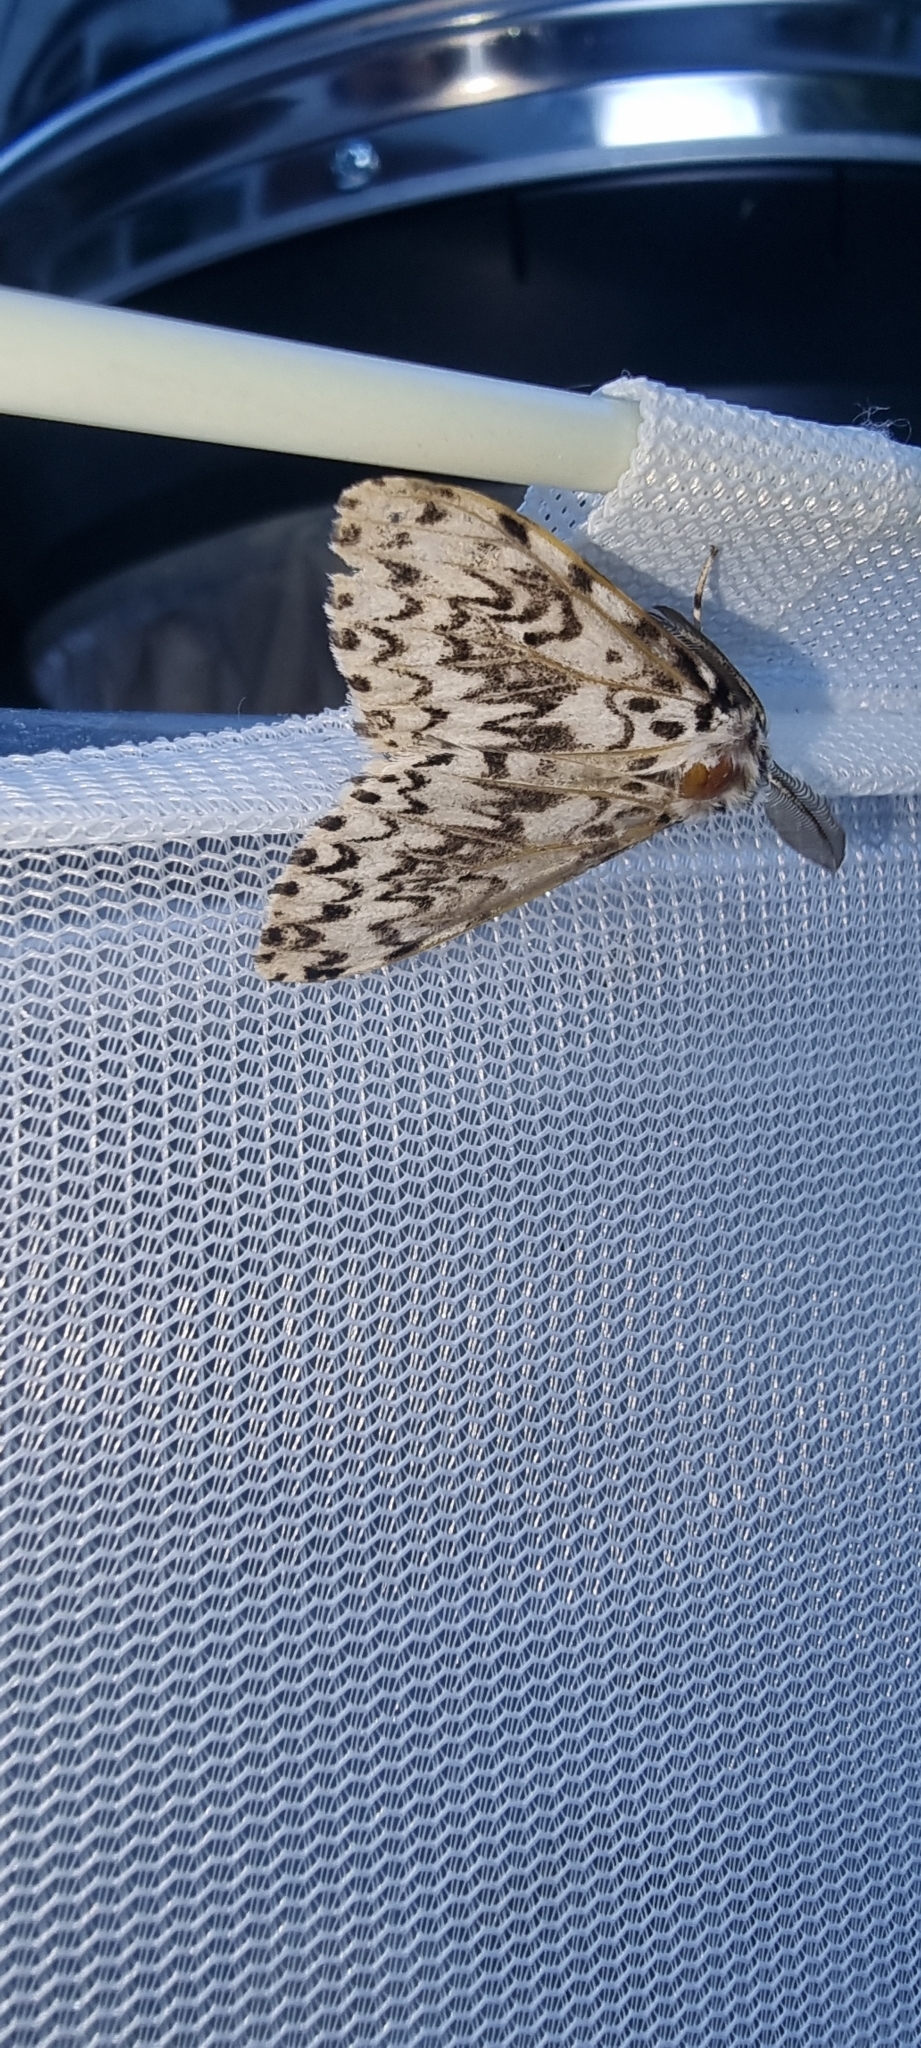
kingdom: Animalia
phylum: Arthropoda
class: Insecta
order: Lepidoptera
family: Erebidae
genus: Lymantria
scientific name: Lymantria monacha
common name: Black arches
